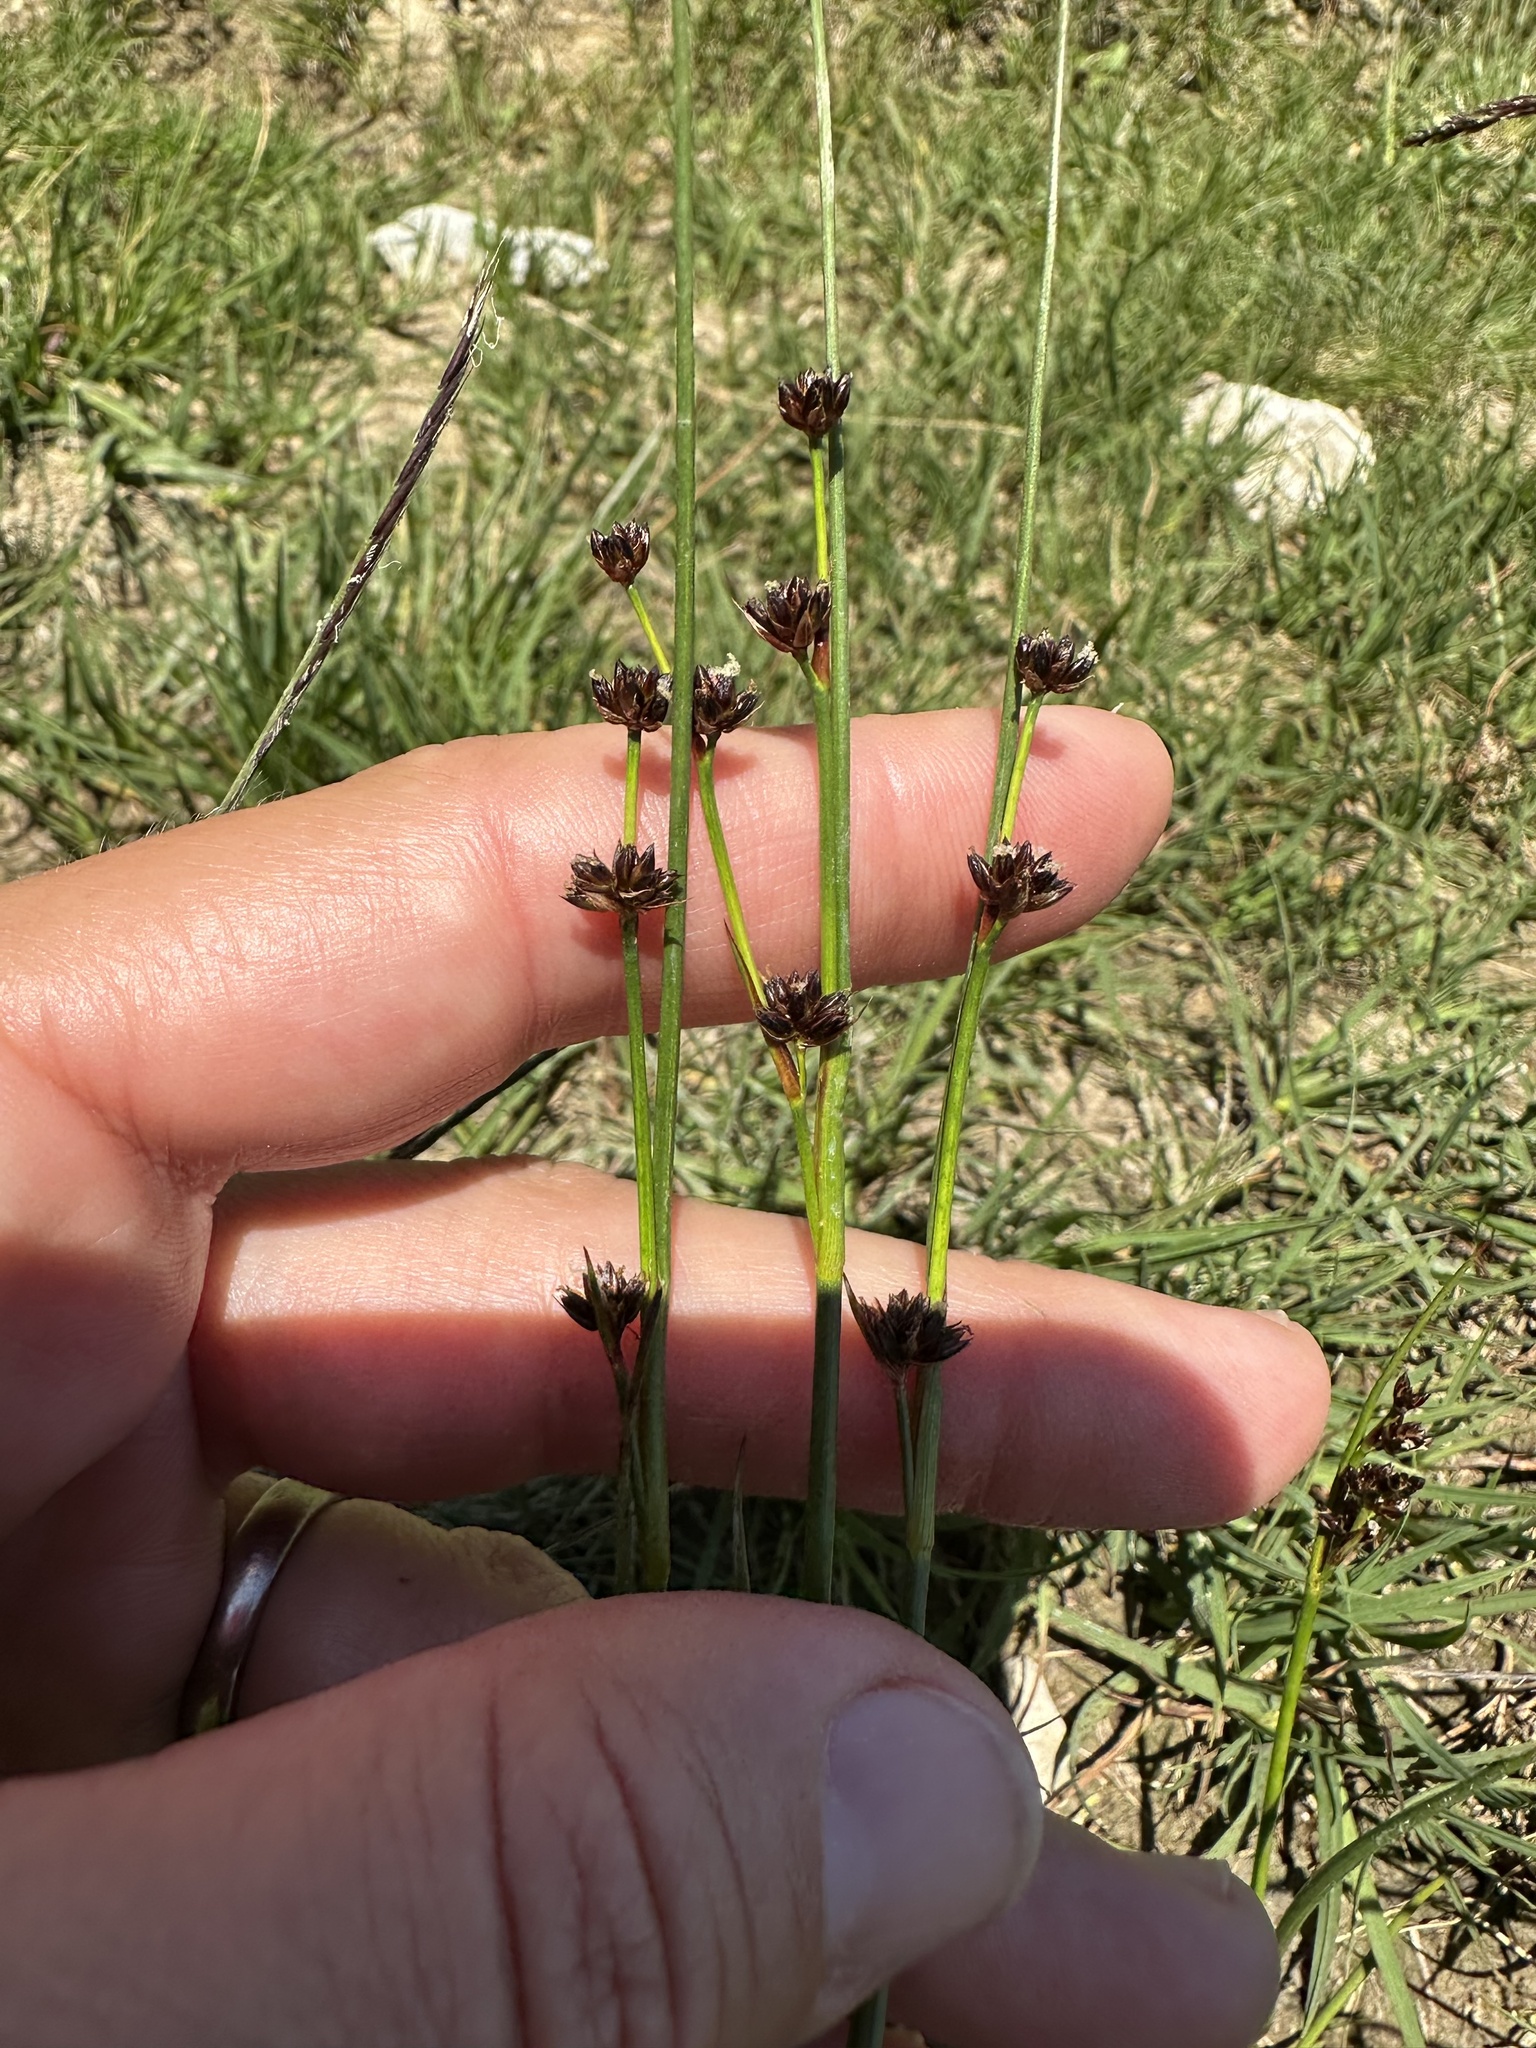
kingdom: Plantae
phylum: Tracheophyta
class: Liliopsida
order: Poales
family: Juncaceae
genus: Juncus
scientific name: Juncus alpinoarticulatus
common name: Alpine rush
